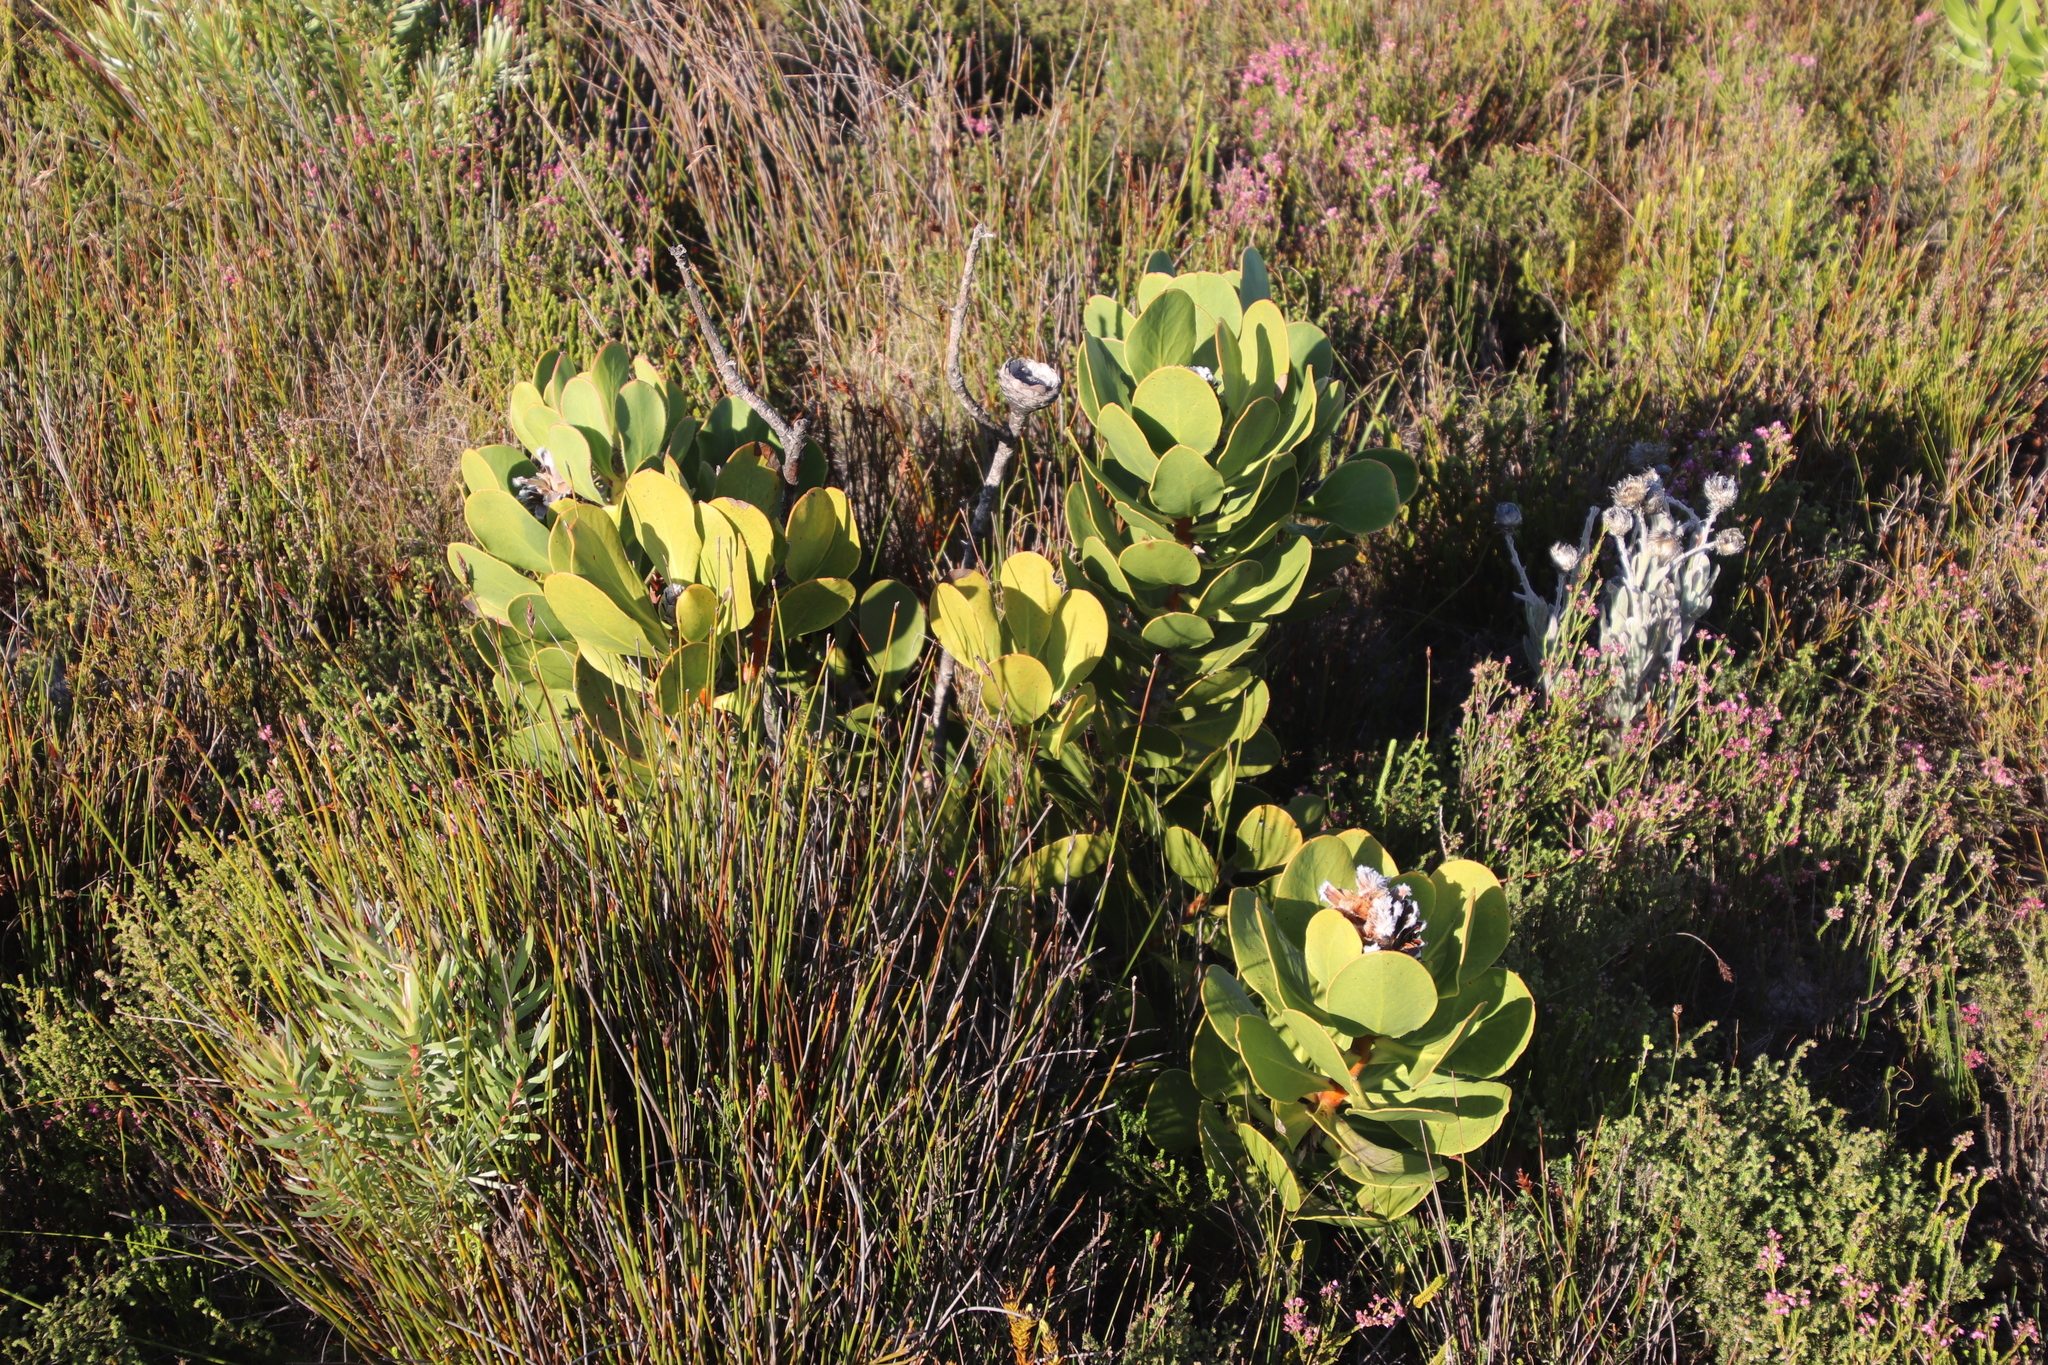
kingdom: Plantae
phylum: Tracheophyta
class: Magnoliopsida
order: Proteales
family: Proteaceae
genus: Protea
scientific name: Protea speciosa
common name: Brown-beard sugarbush
